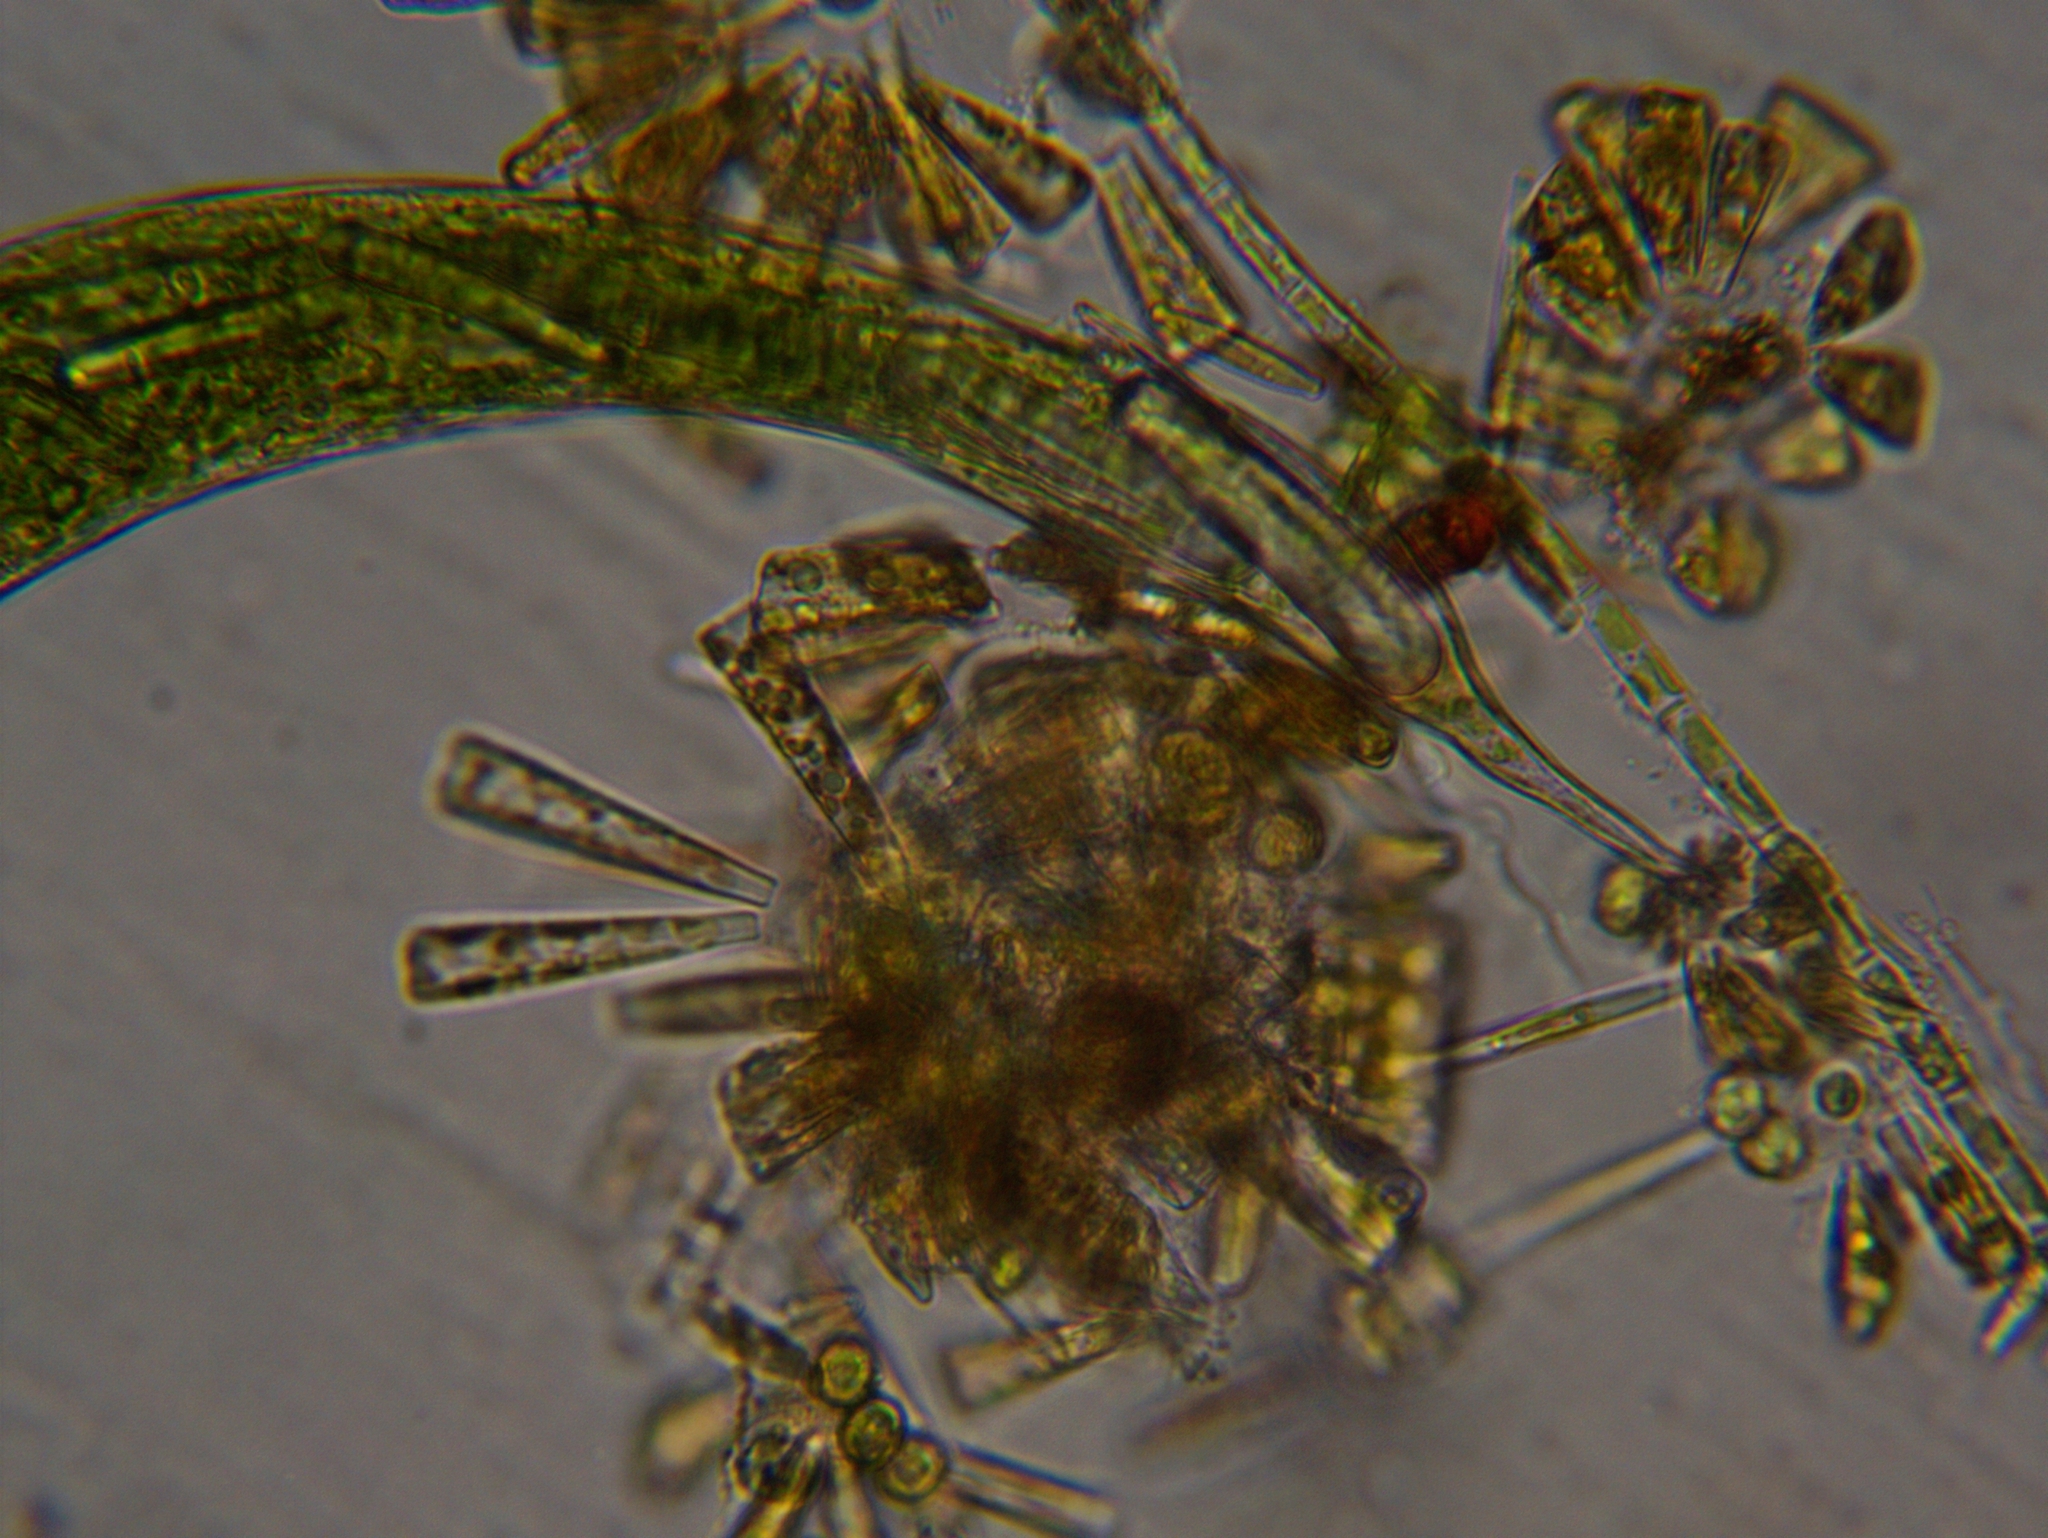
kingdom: Protozoa
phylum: Euglenozoa
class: Euglenoidea
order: Euglenida
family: Phacidae
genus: Lepocinclis
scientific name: Lepocinclis helicoidea
